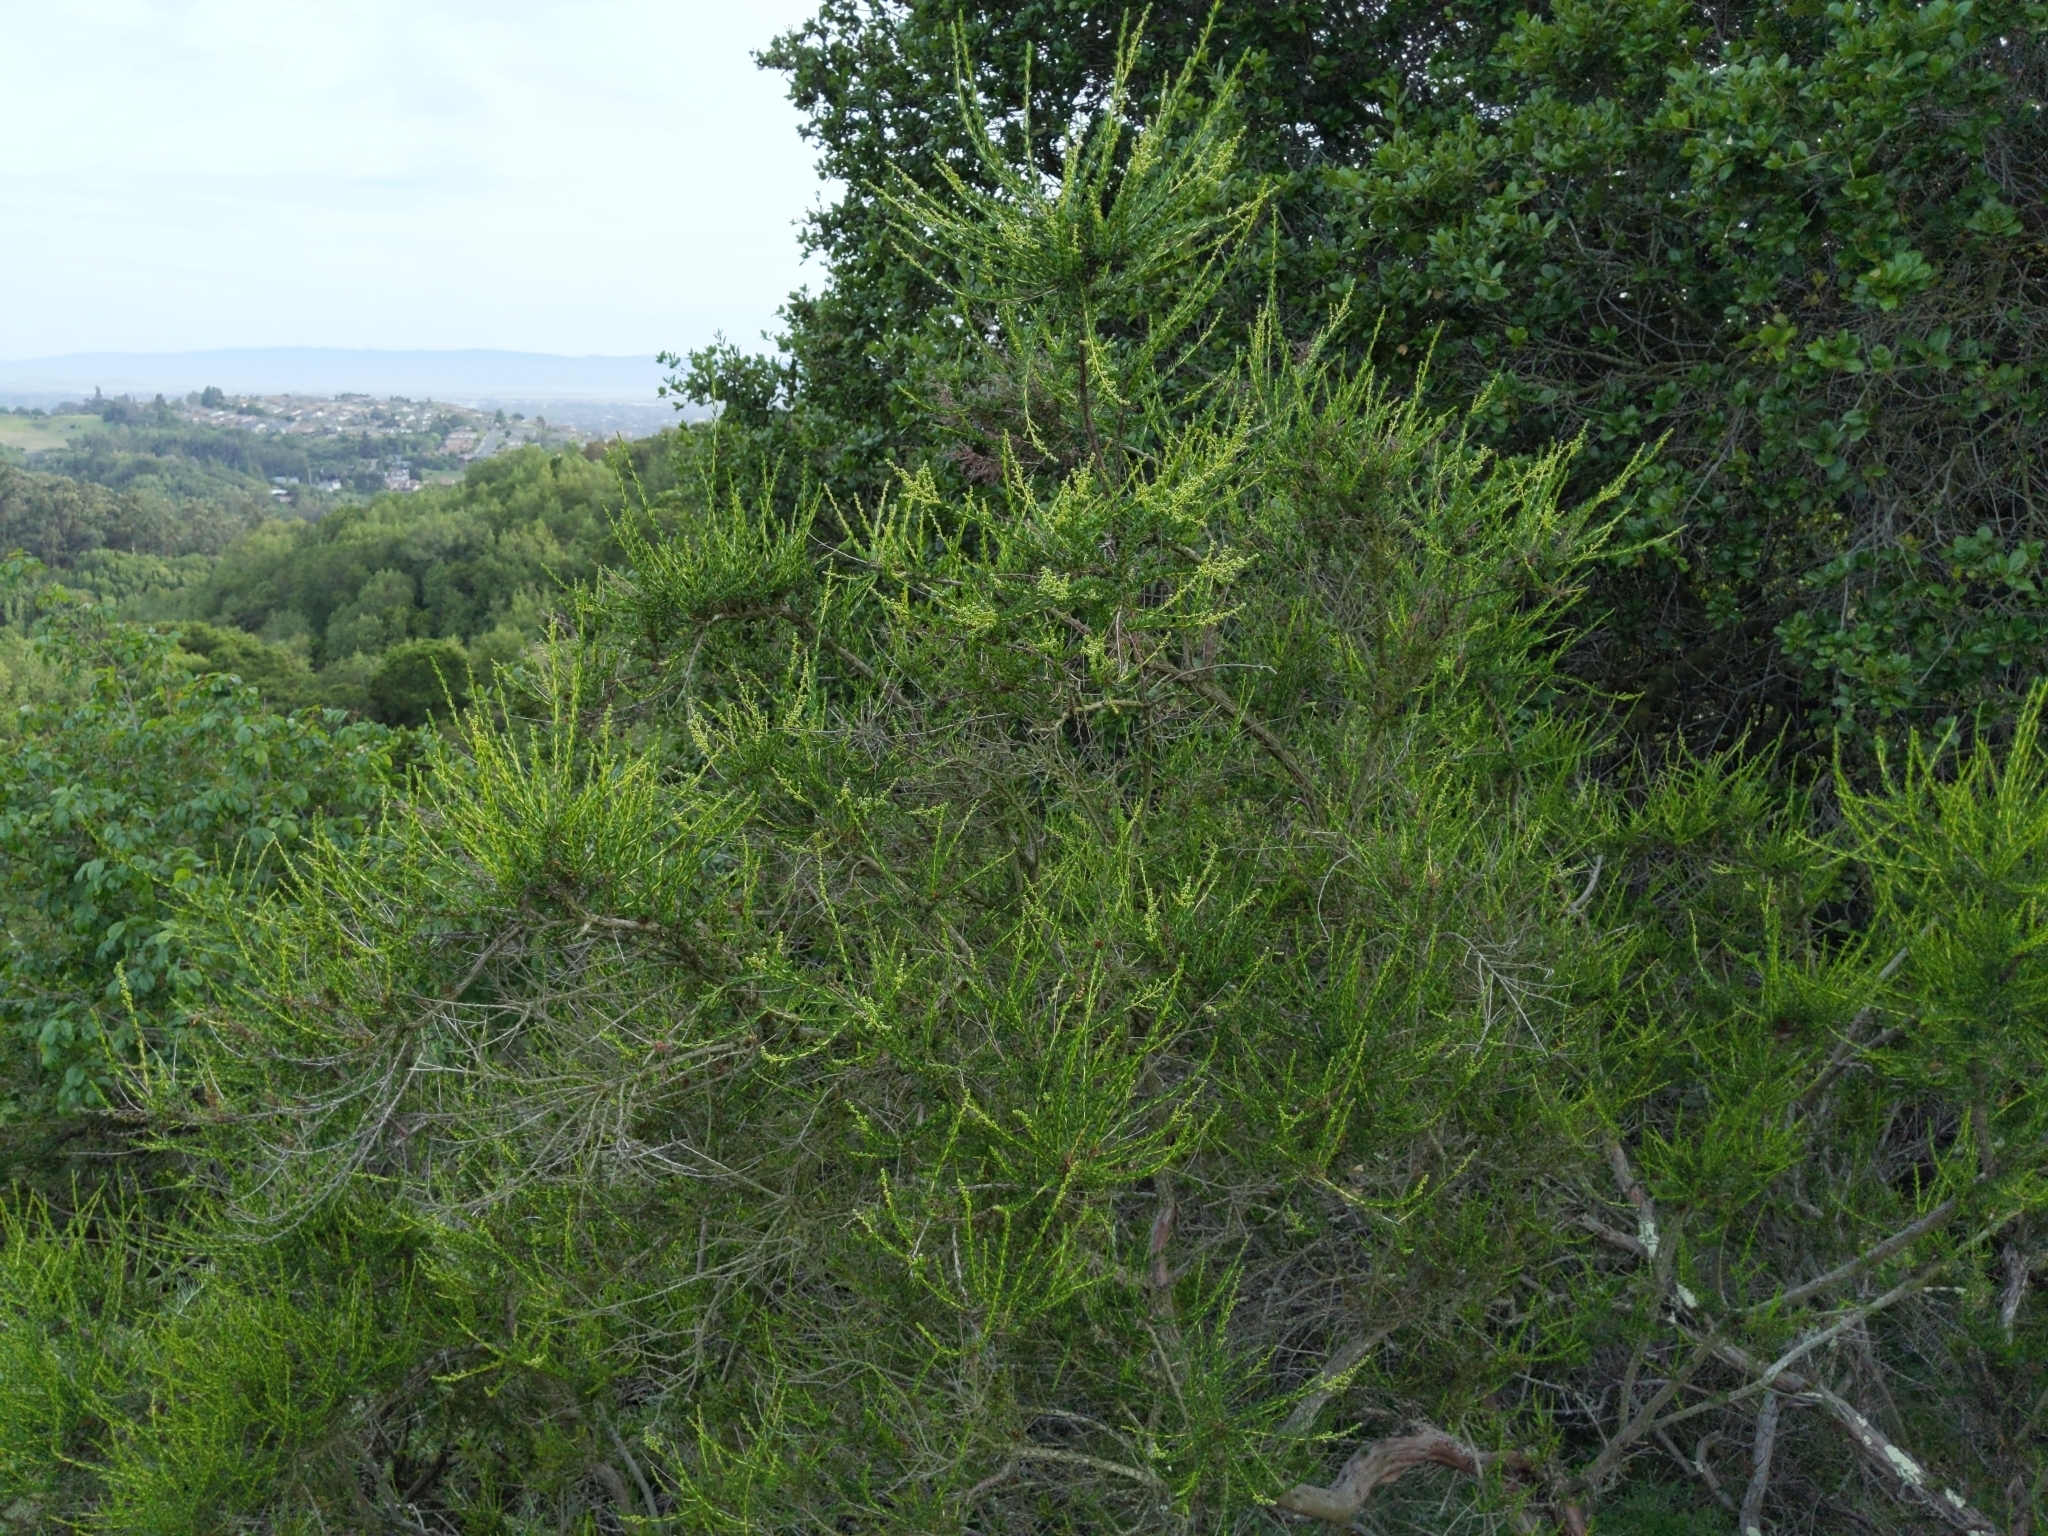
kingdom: Plantae
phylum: Tracheophyta
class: Magnoliopsida
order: Rosales
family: Rosaceae
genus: Adenostoma
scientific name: Adenostoma fasciculatum
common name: Chamise
